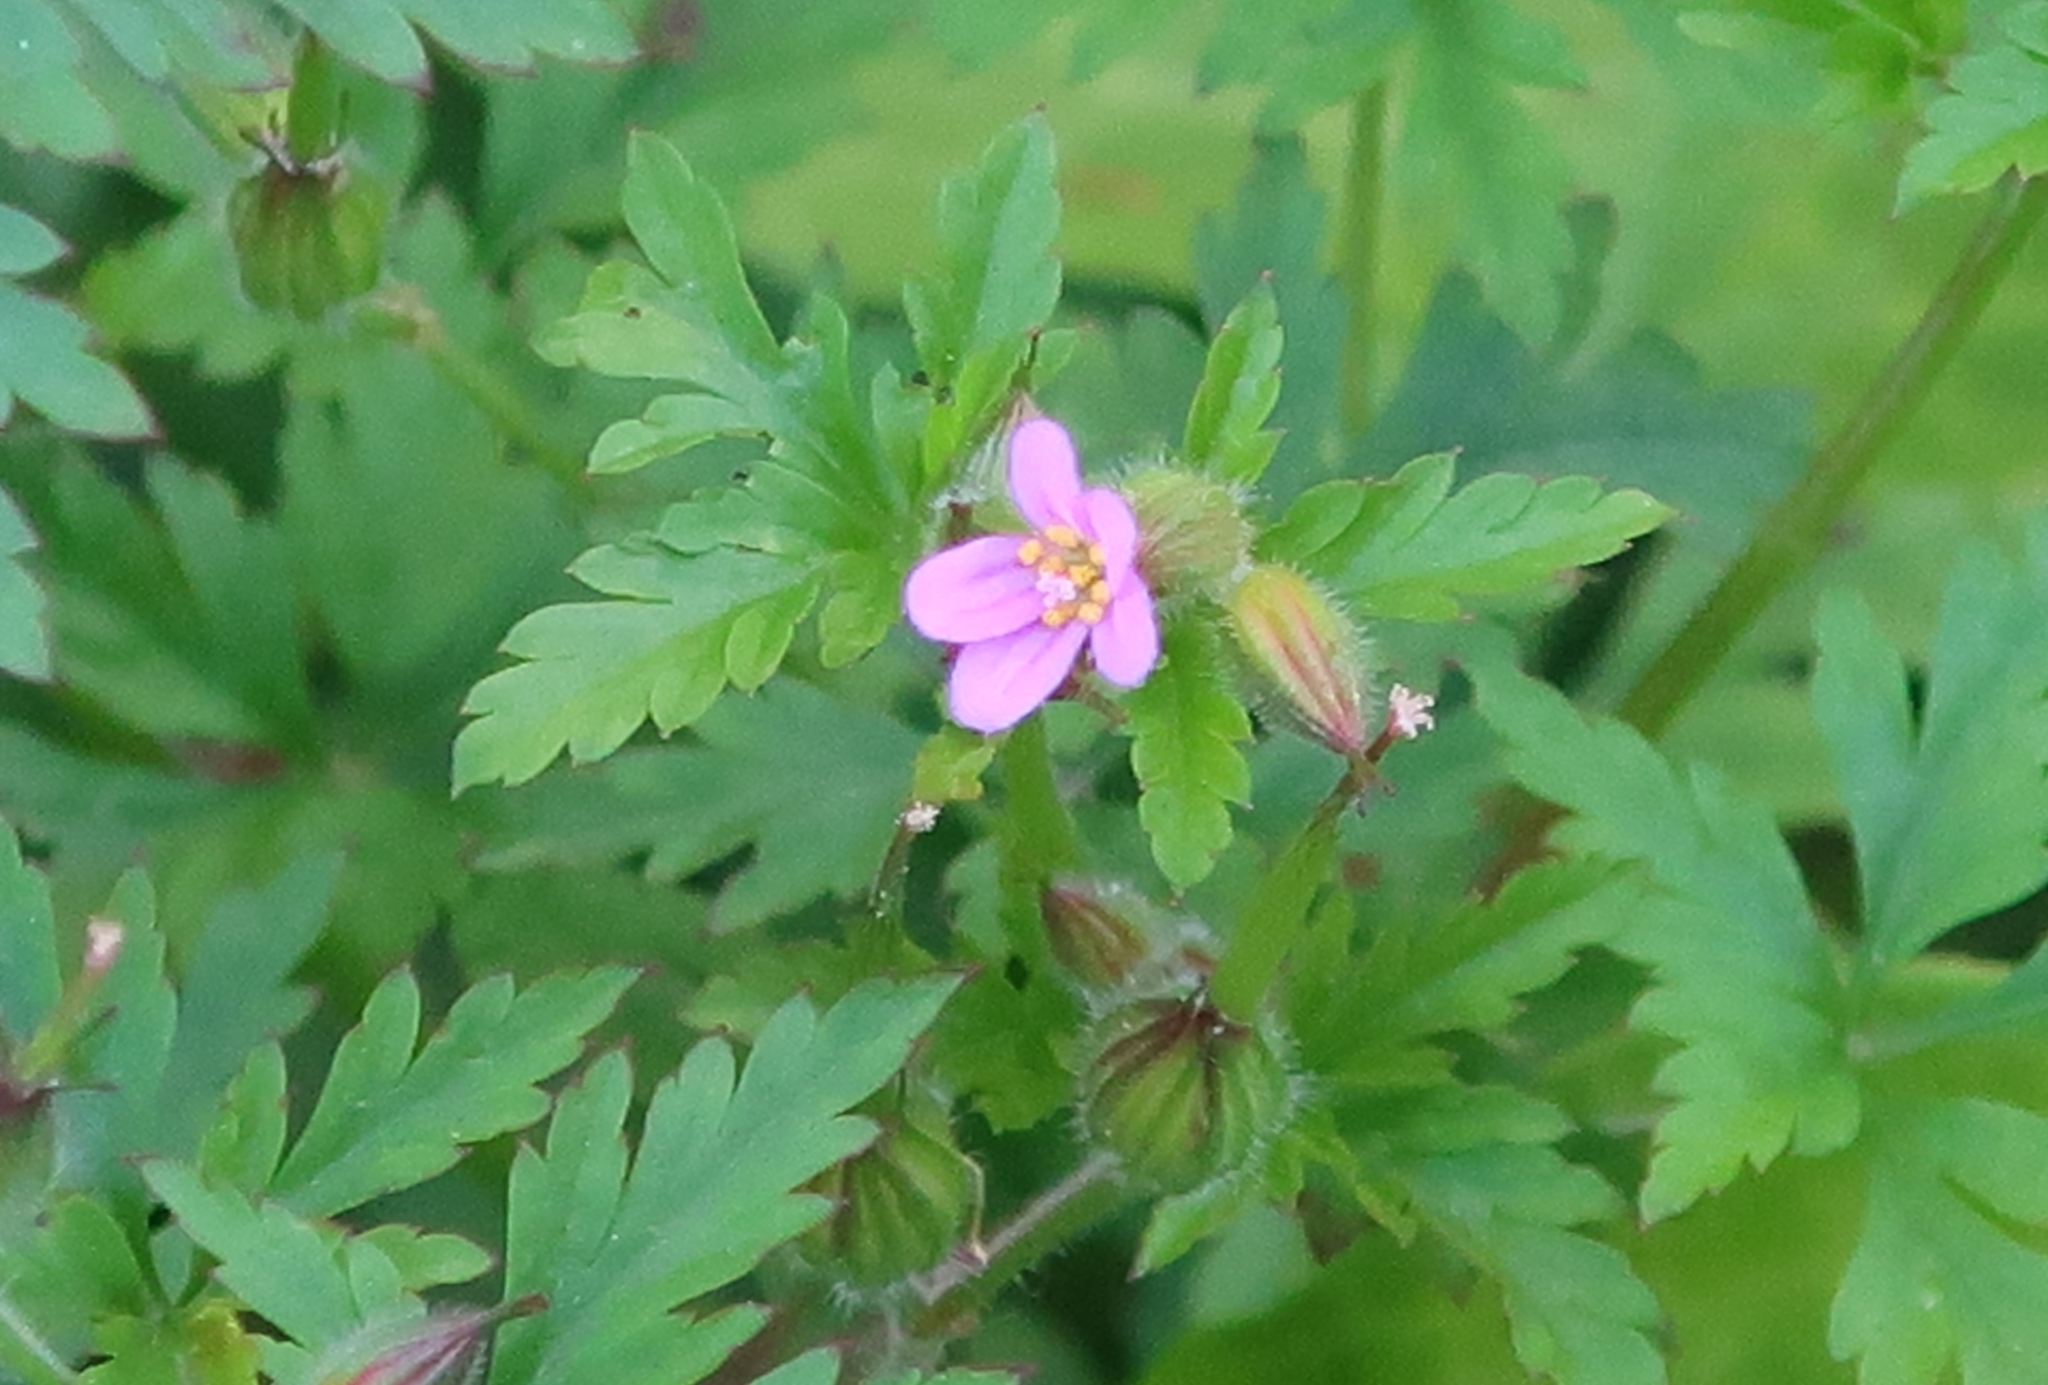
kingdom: Plantae
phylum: Tracheophyta
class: Magnoliopsida
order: Geraniales
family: Geraniaceae
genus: Geranium
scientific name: Geranium purpureum
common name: Little-robin
